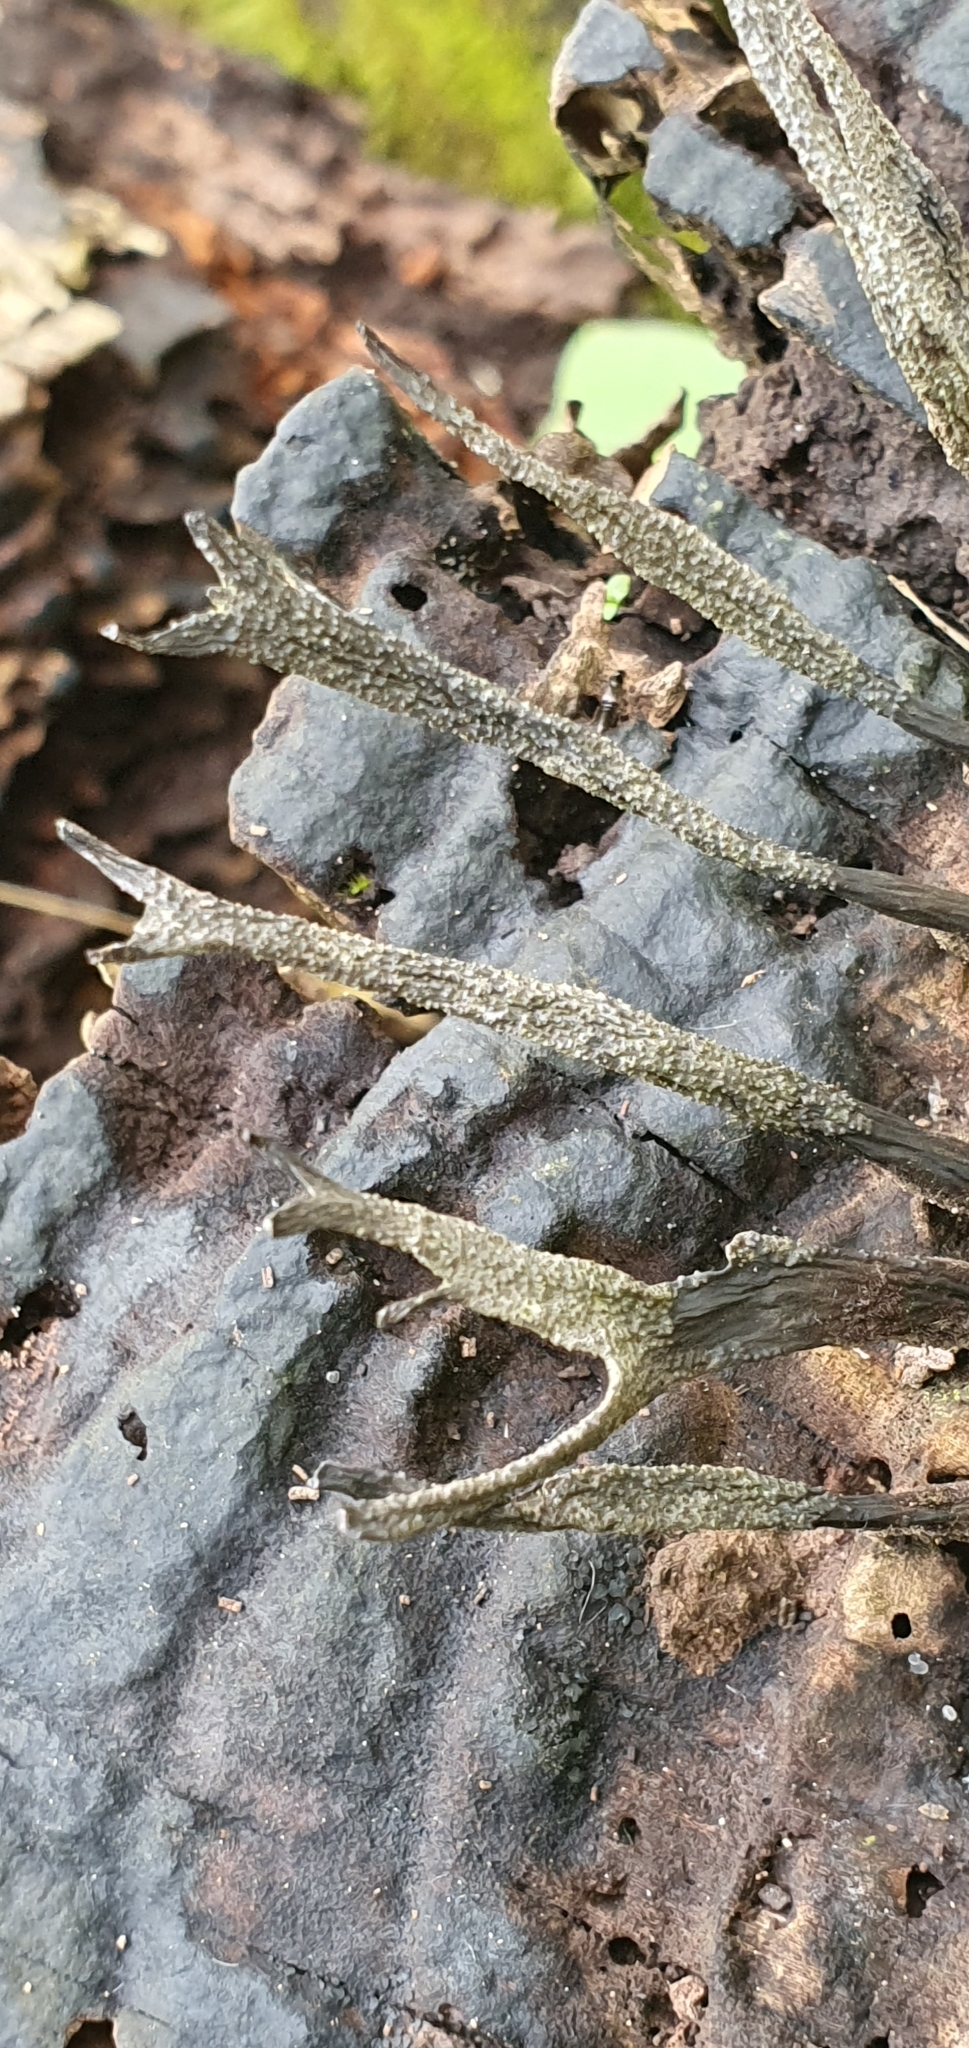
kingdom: Fungi
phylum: Ascomycota
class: Sordariomycetes
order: Xylariales
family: Xylariaceae
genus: Xylaria
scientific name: Xylaria hypoxylon
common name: Candle-snuff fungus
